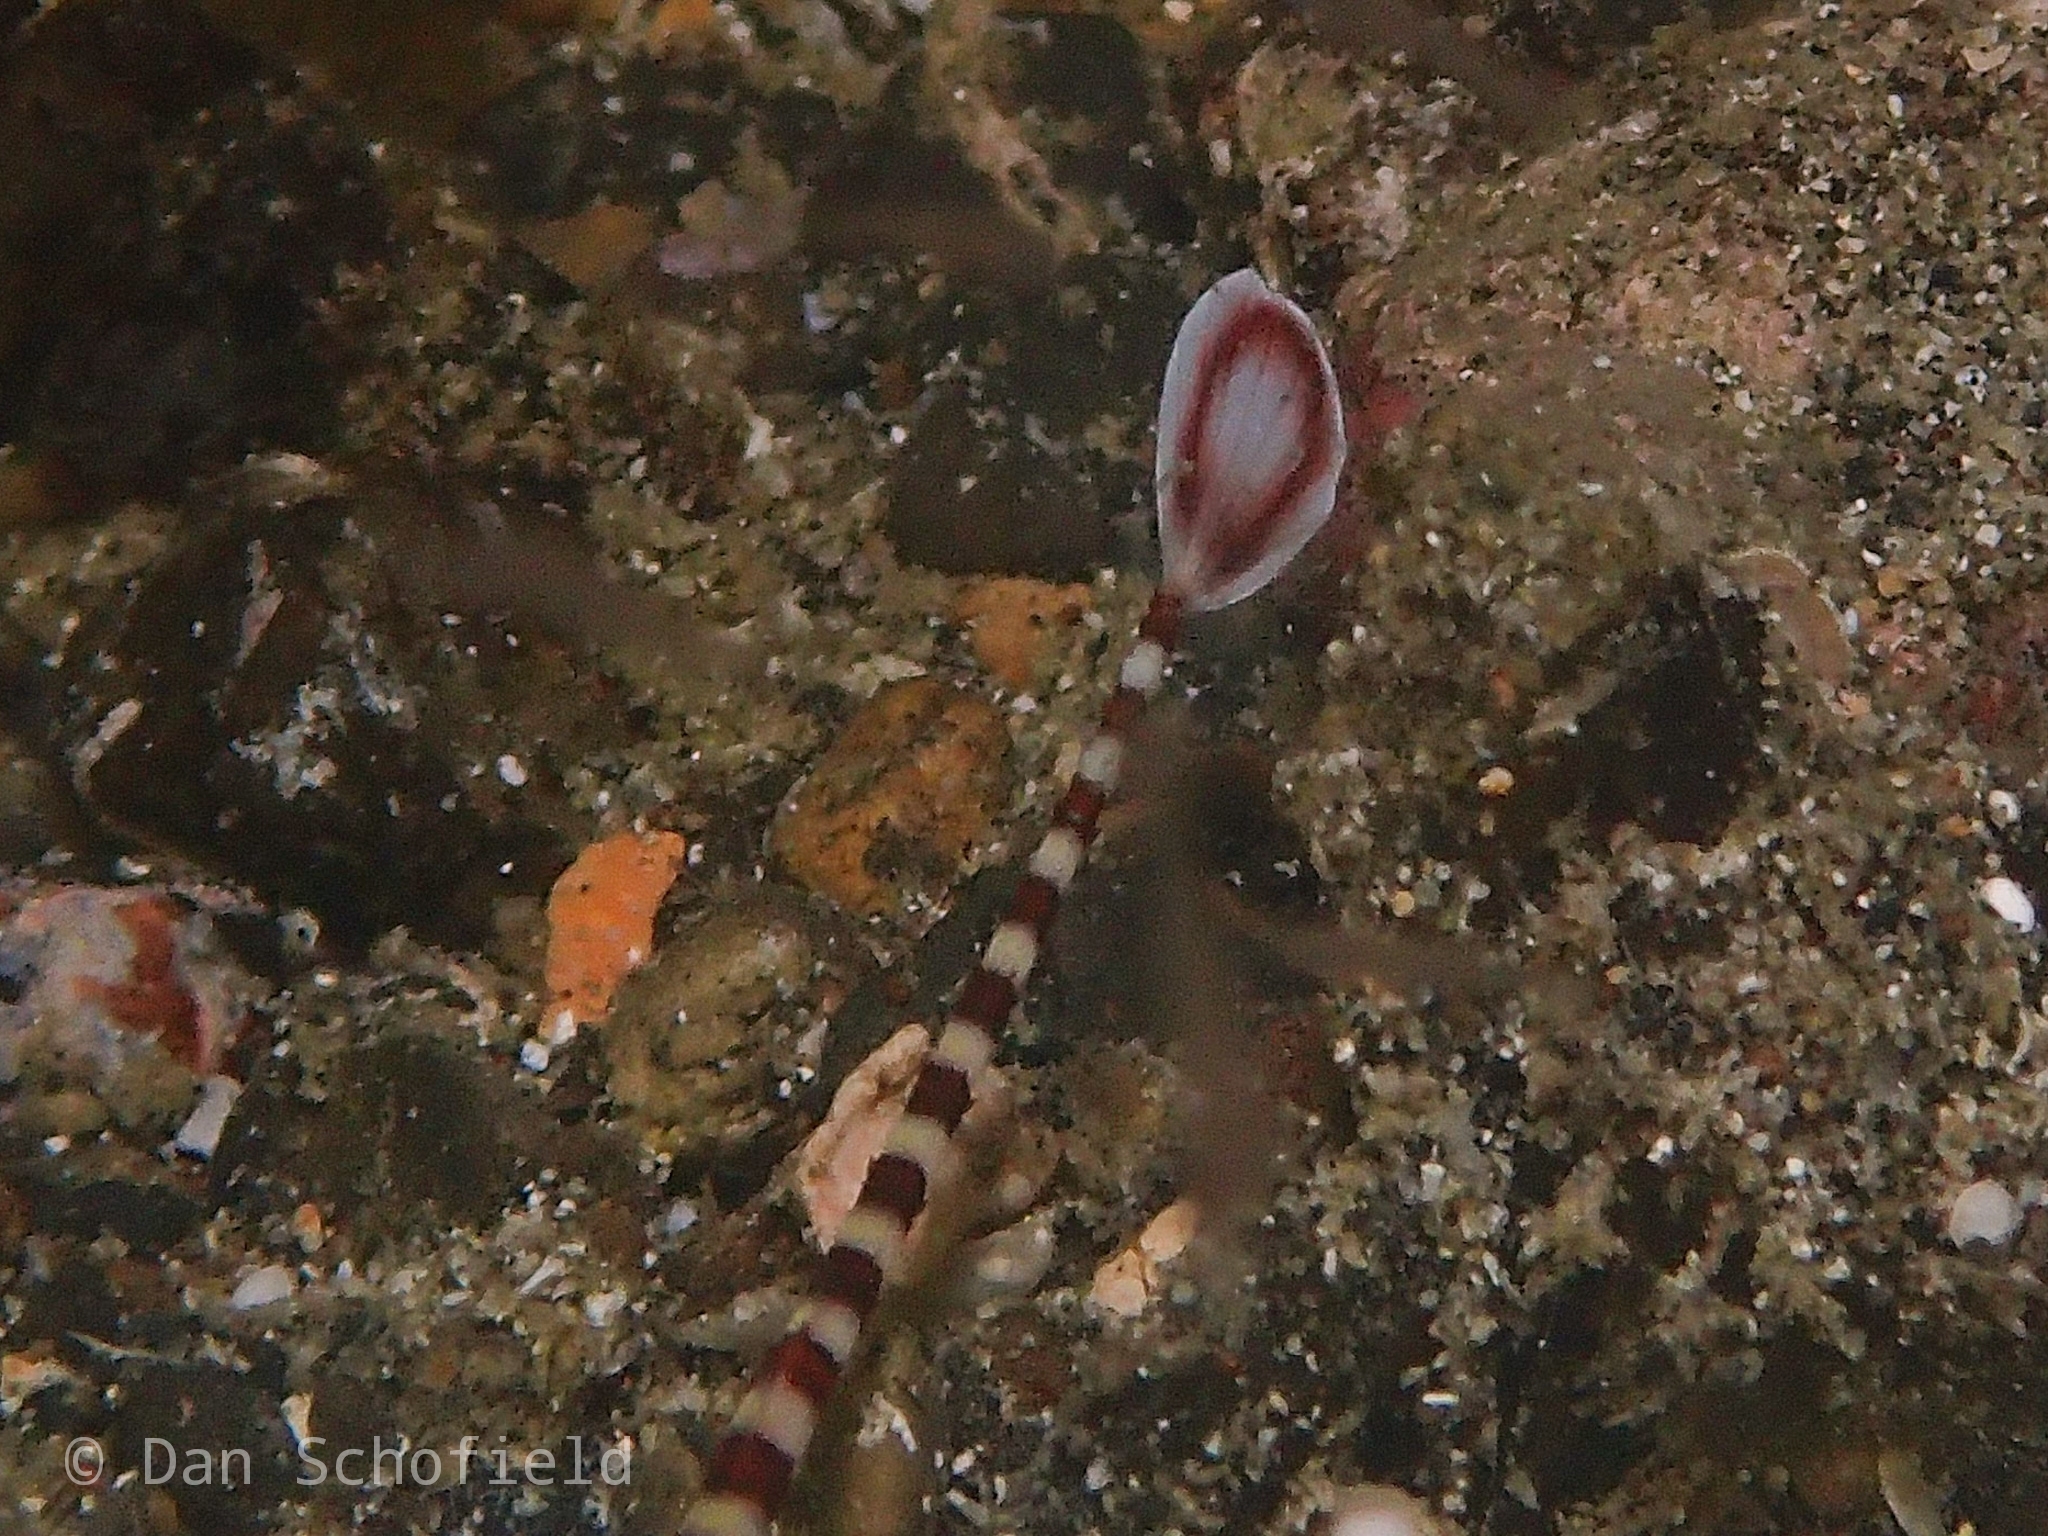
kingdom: Animalia
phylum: Chordata
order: Syngnathiformes
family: Syngnathidae
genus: Dunckerocampus
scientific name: Dunckerocampus dactyliophorus
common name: Banded pipefish
